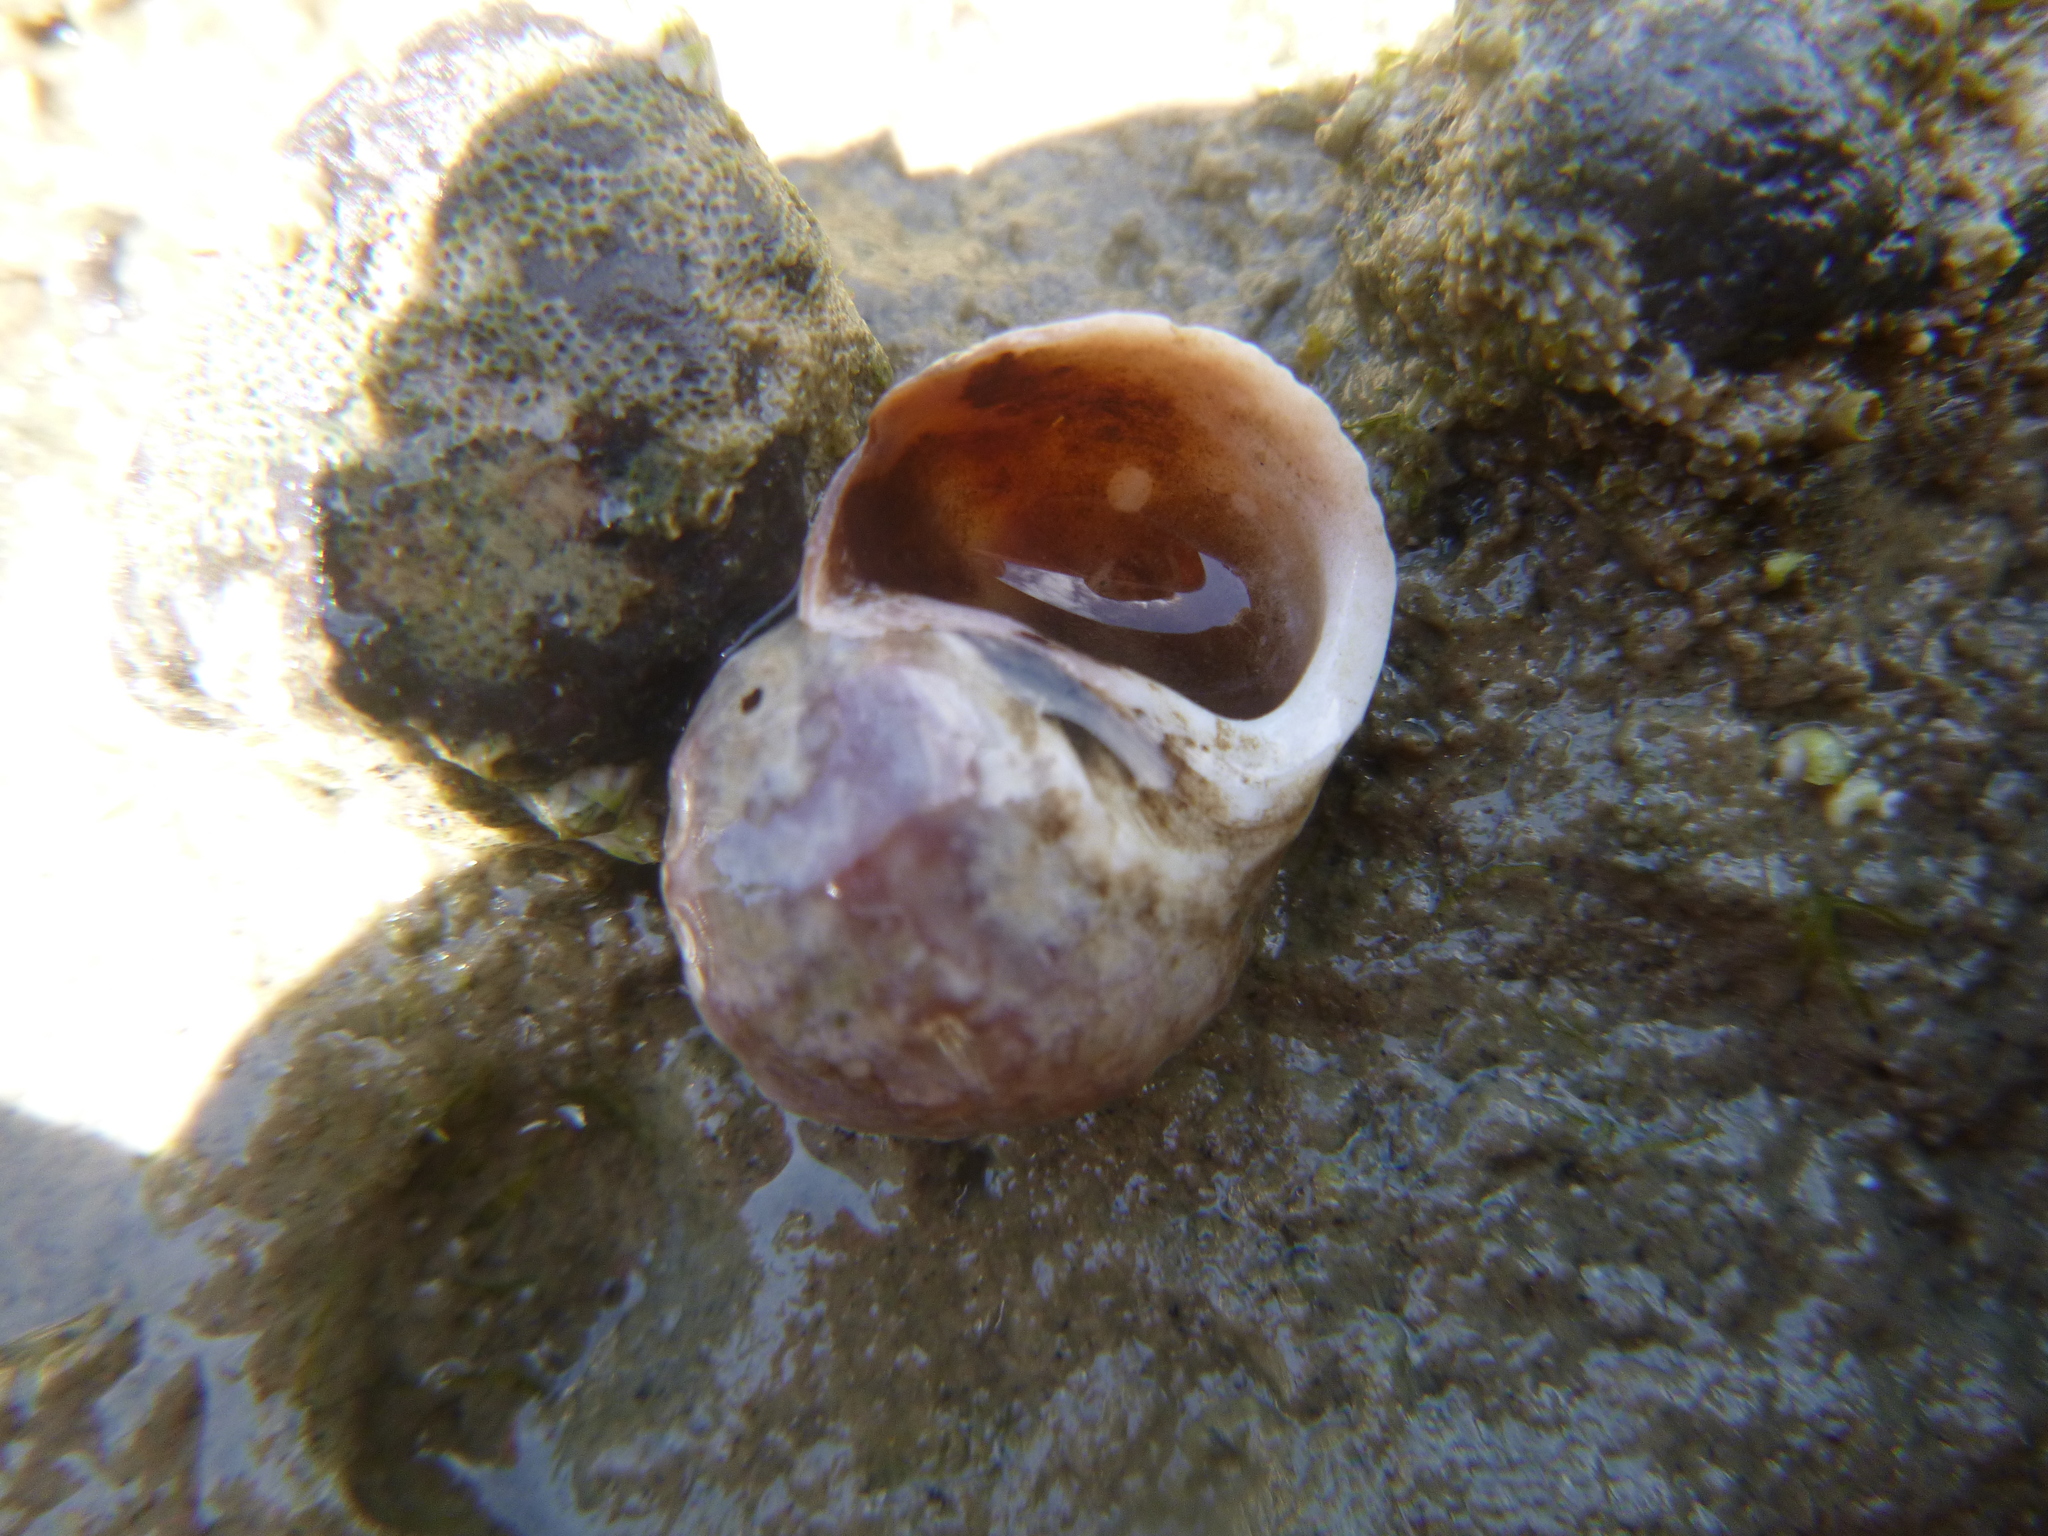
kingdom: Animalia
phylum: Mollusca
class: Gastropoda
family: Amphibolidae
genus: Amphibola
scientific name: Amphibola crenata
